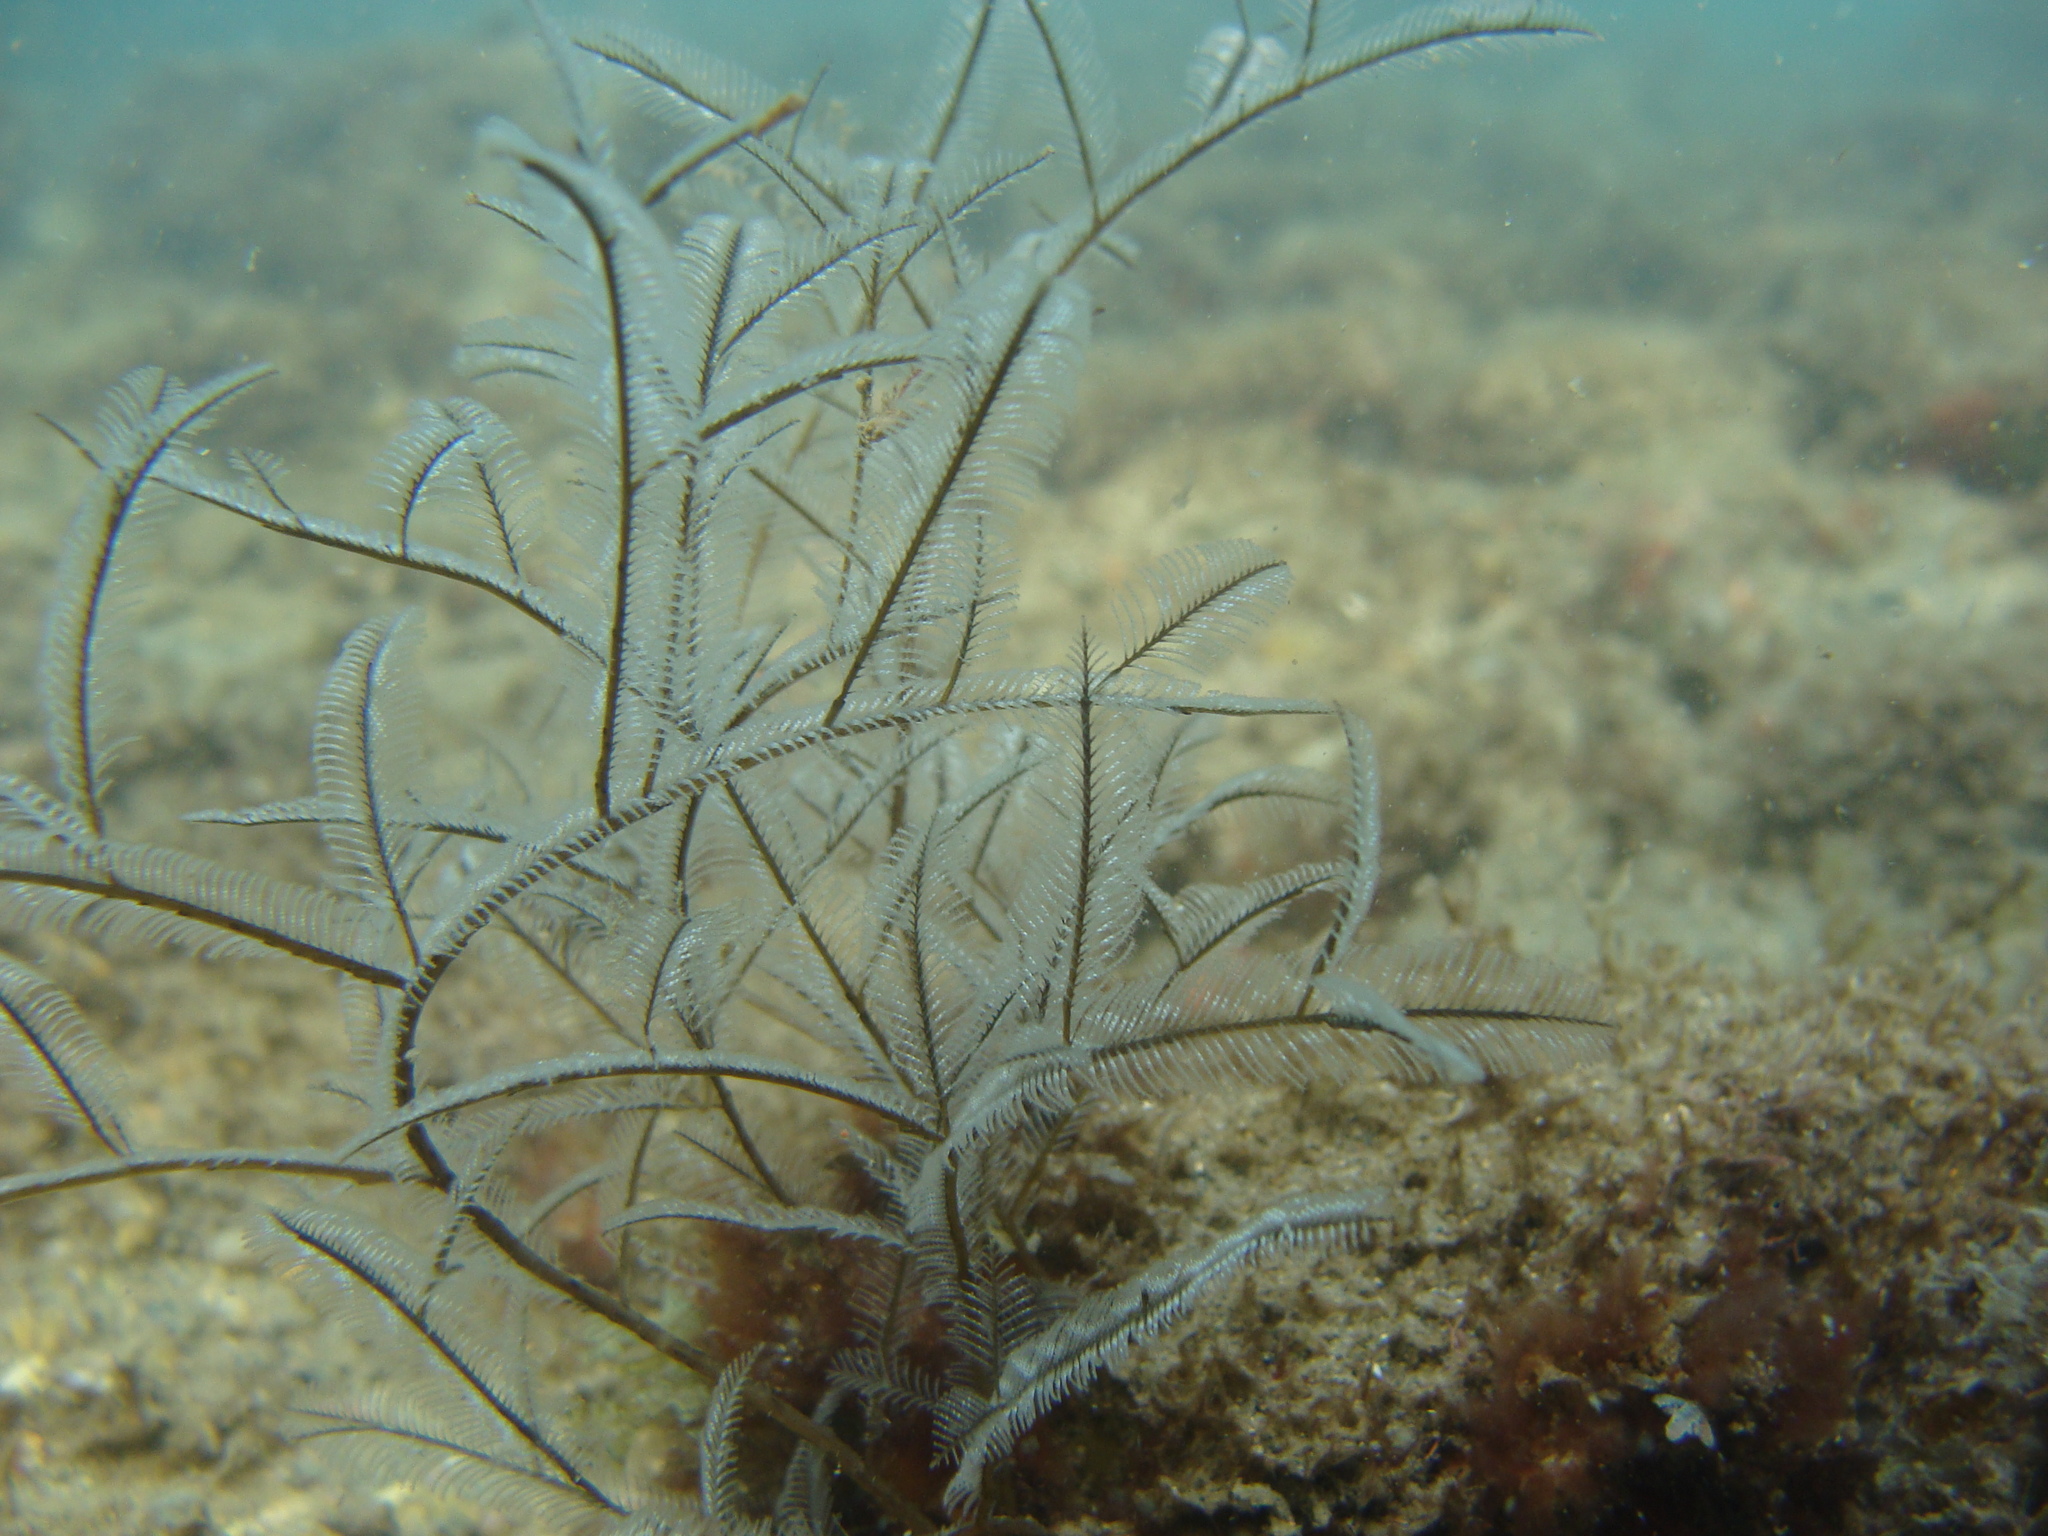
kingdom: Animalia
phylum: Cnidaria
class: Hydrozoa
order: Leptothecata
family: Aglaopheniidae
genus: Macrorhynchia
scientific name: Macrorhynchia philippina
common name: Stinging hydroid
